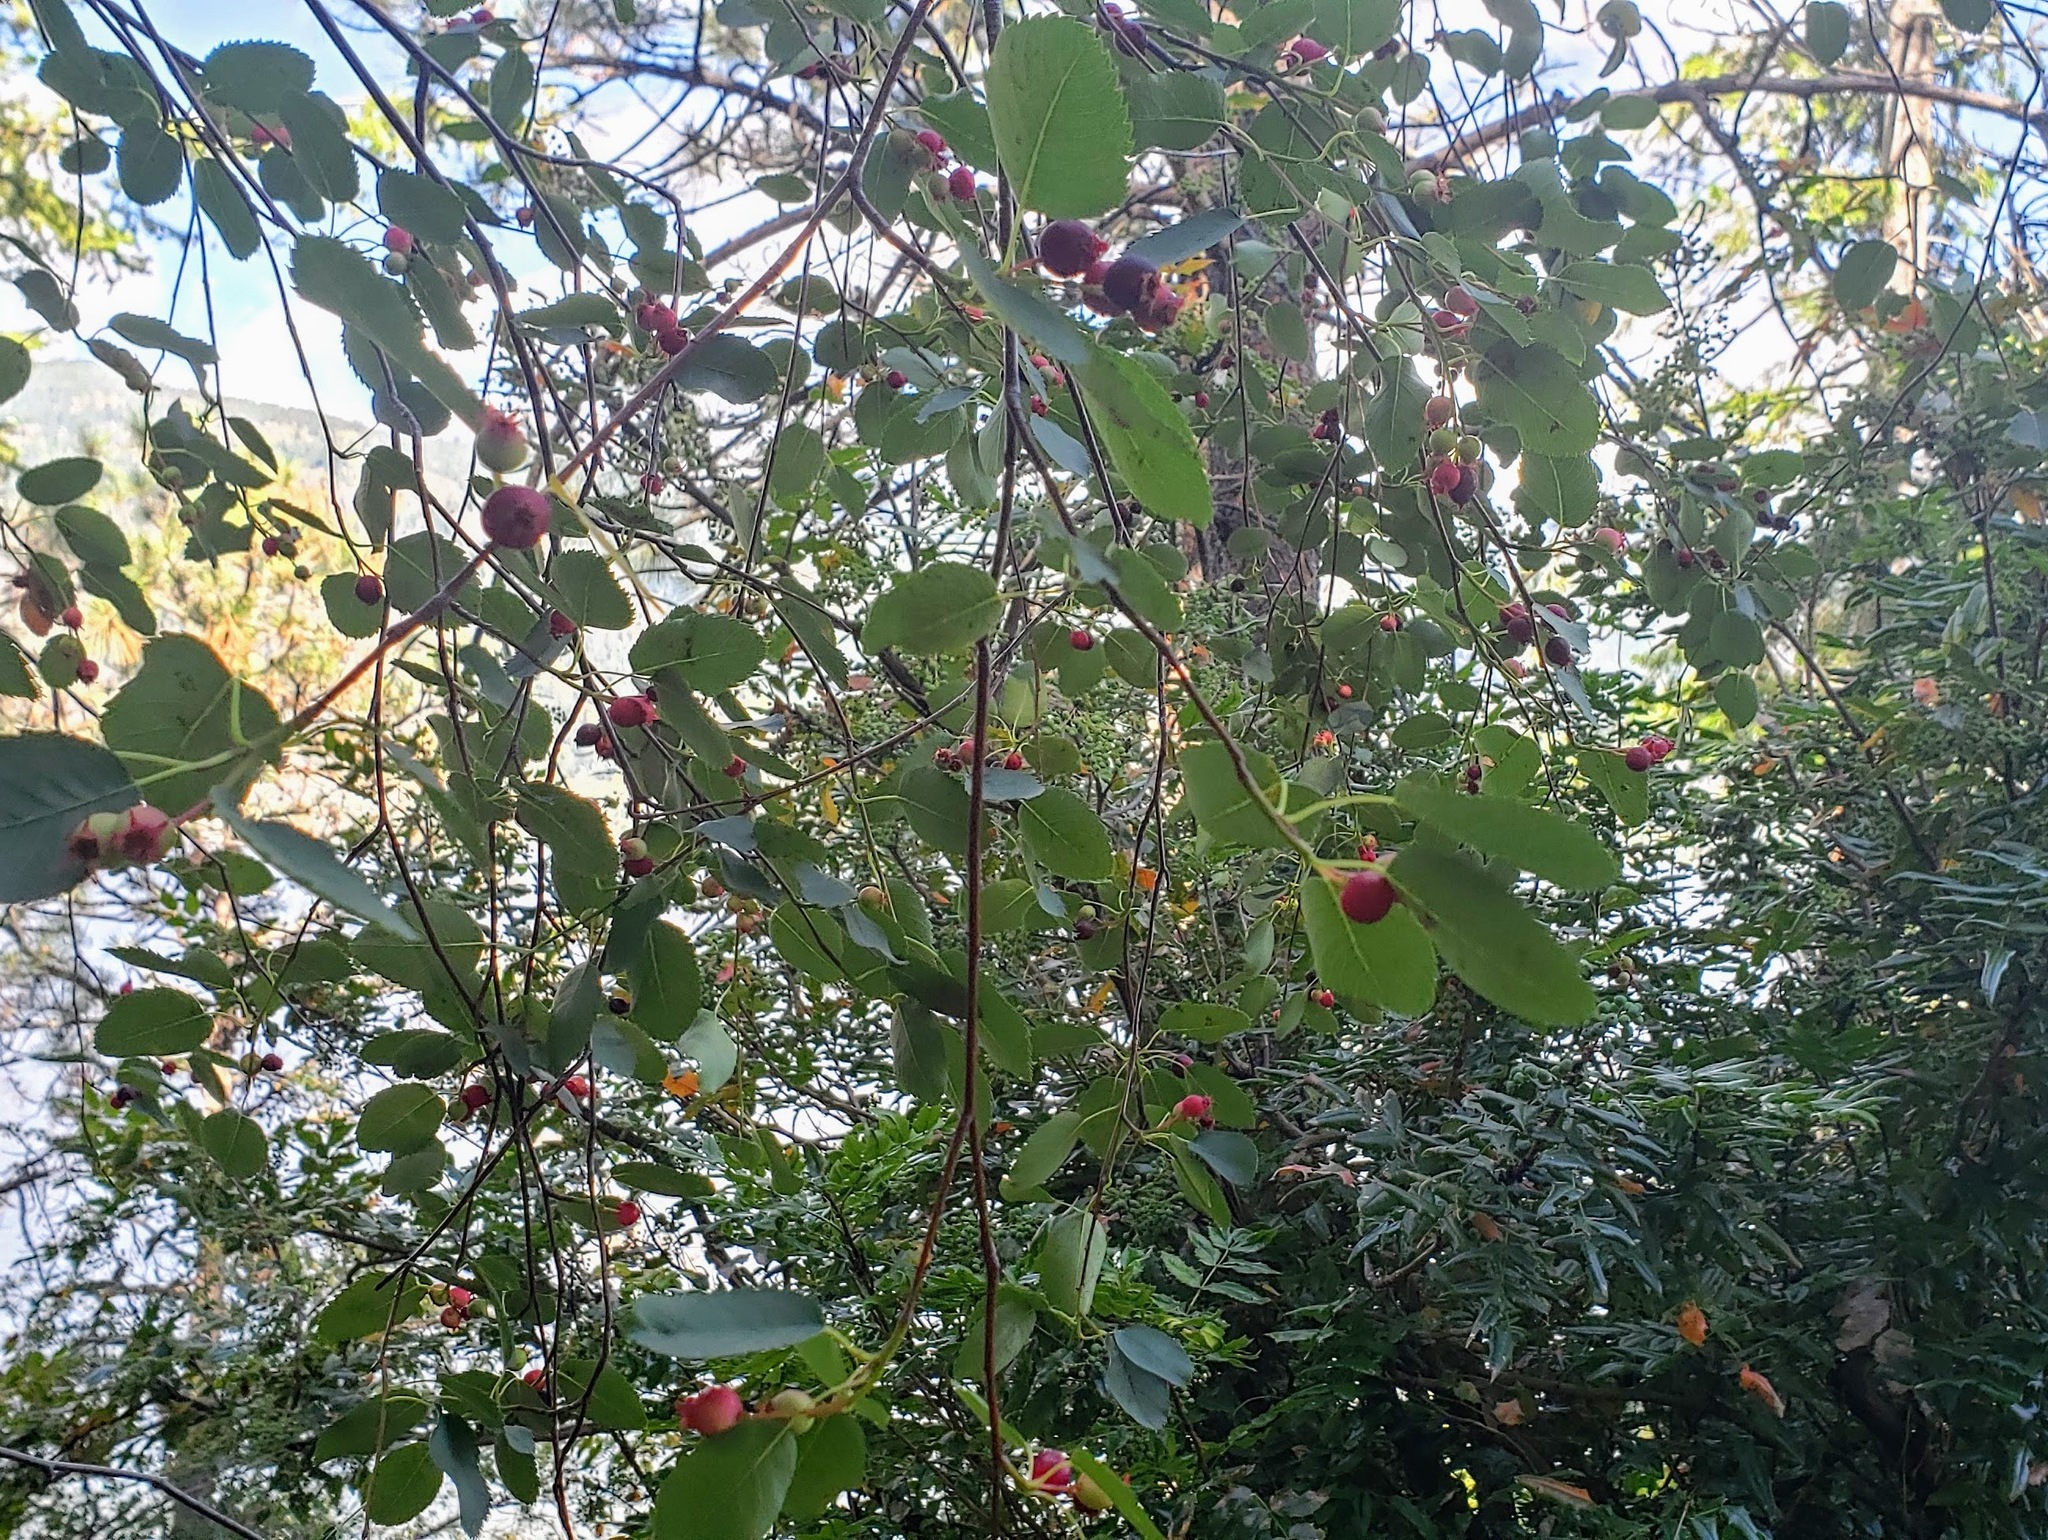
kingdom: Plantae
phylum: Tracheophyta
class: Magnoliopsida
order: Rosales
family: Rosaceae
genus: Amelanchier
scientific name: Amelanchier alnifolia
